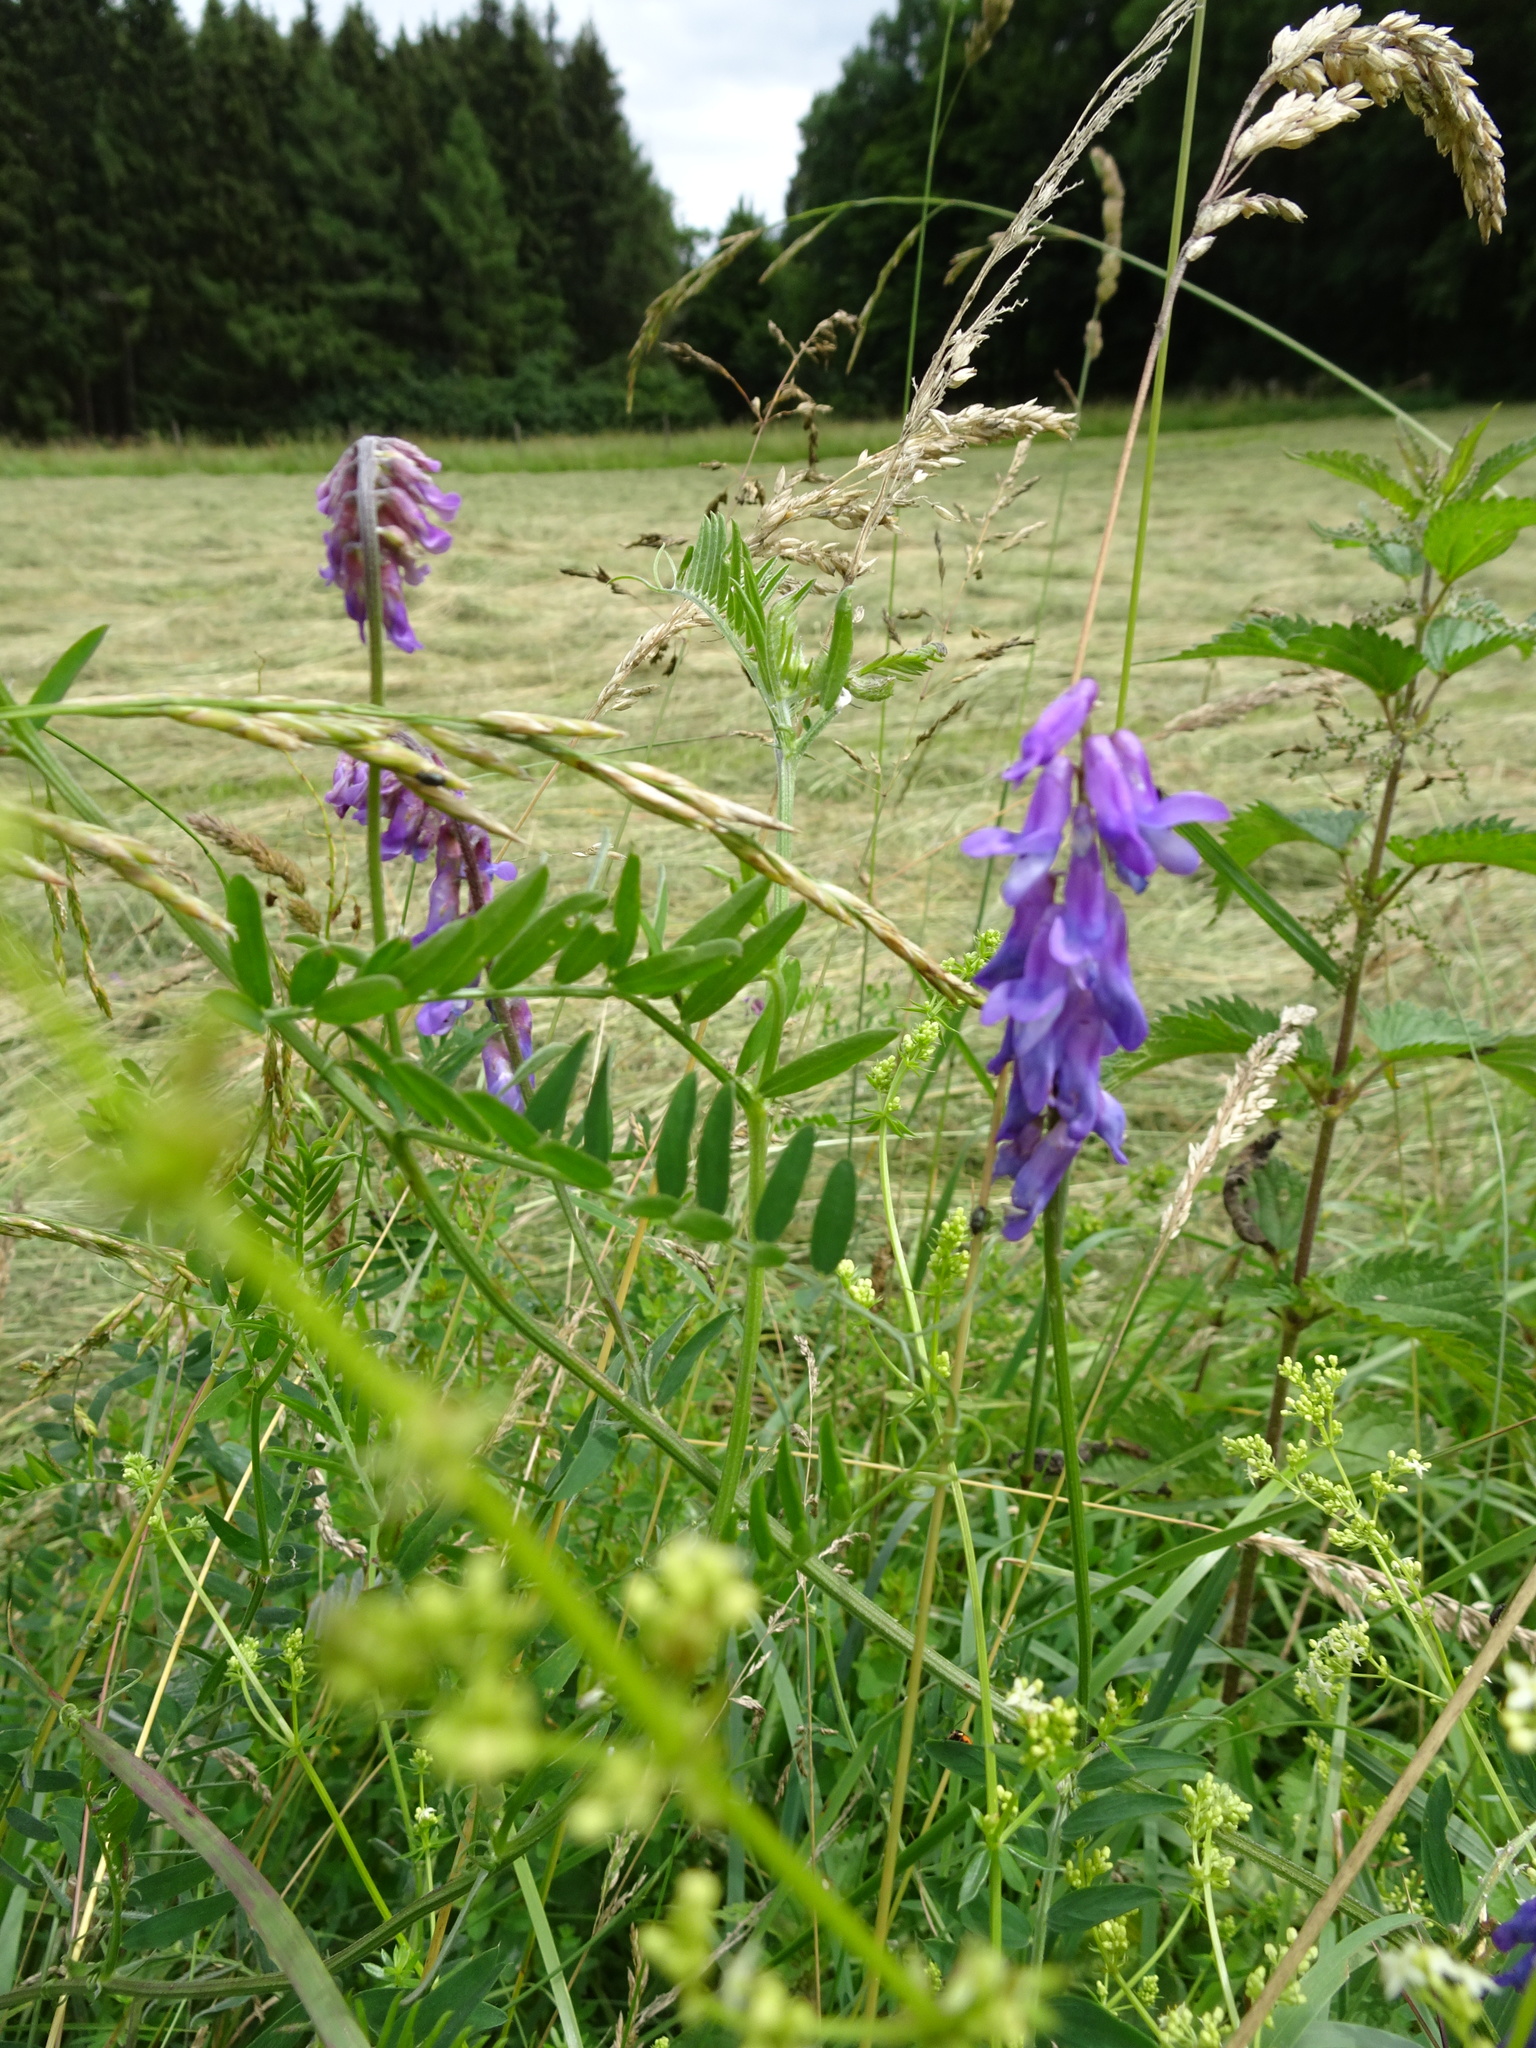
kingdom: Plantae
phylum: Tracheophyta
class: Magnoliopsida
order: Fabales
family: Fabaceae
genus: Vicia
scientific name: Vicia cracca
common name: Bird vetch
